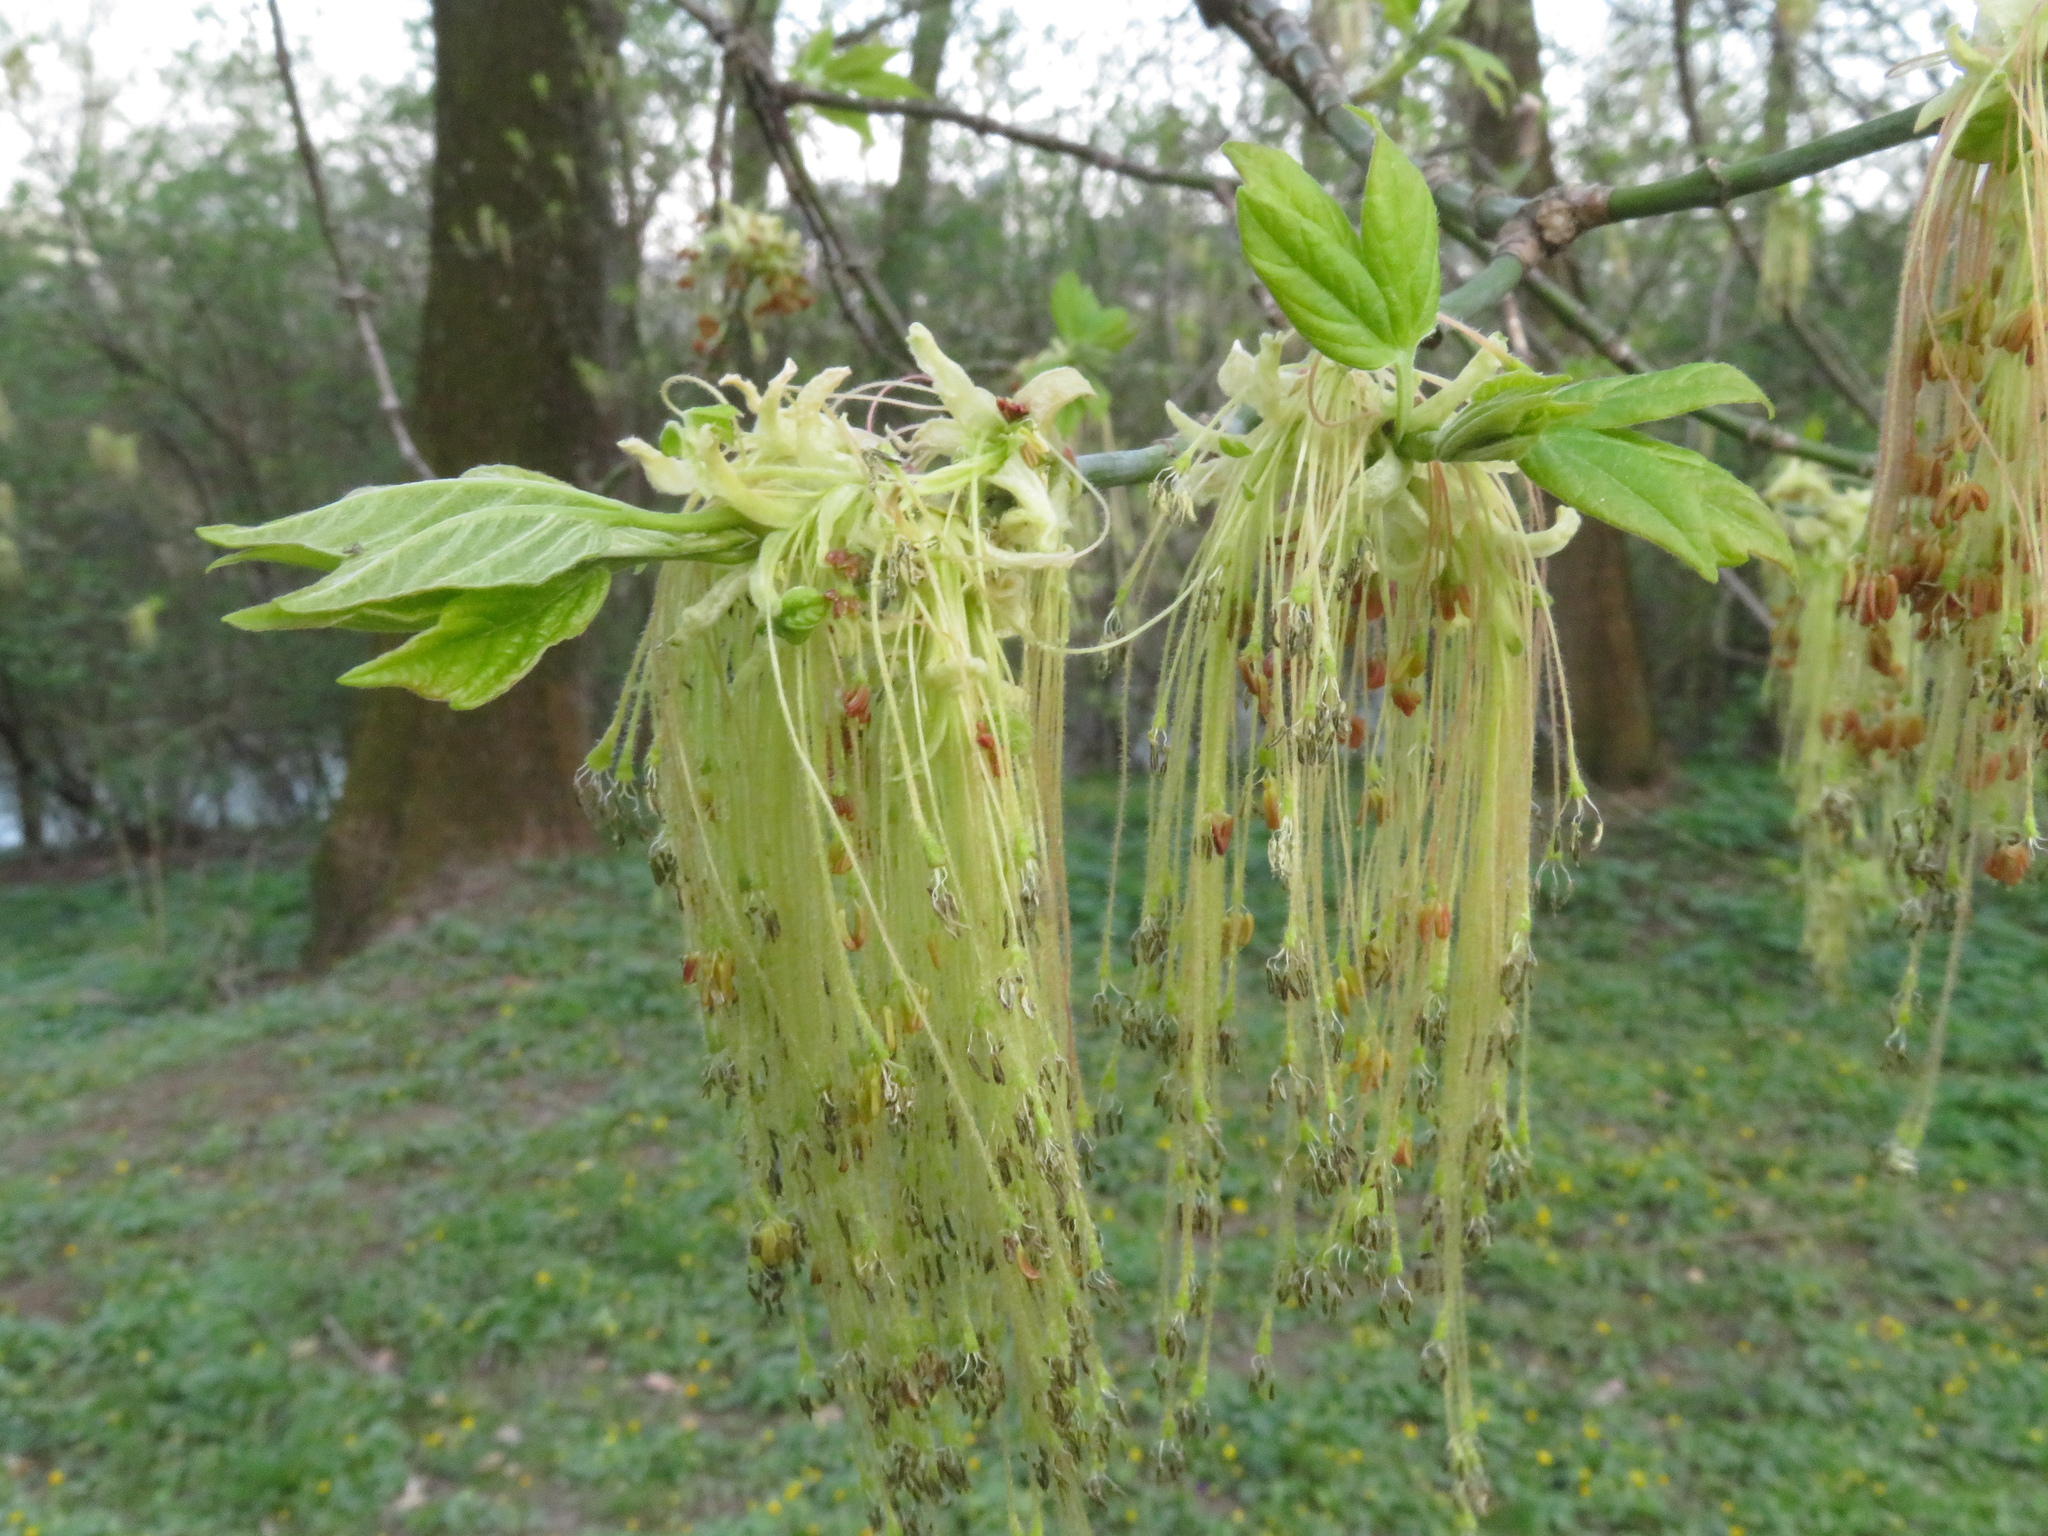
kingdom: Plantae
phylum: Tracheophyta
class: Magnoliopsida
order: Sapindales
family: Sapindaceae
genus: Acer
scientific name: Acer negundo
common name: Ashleaf maple
